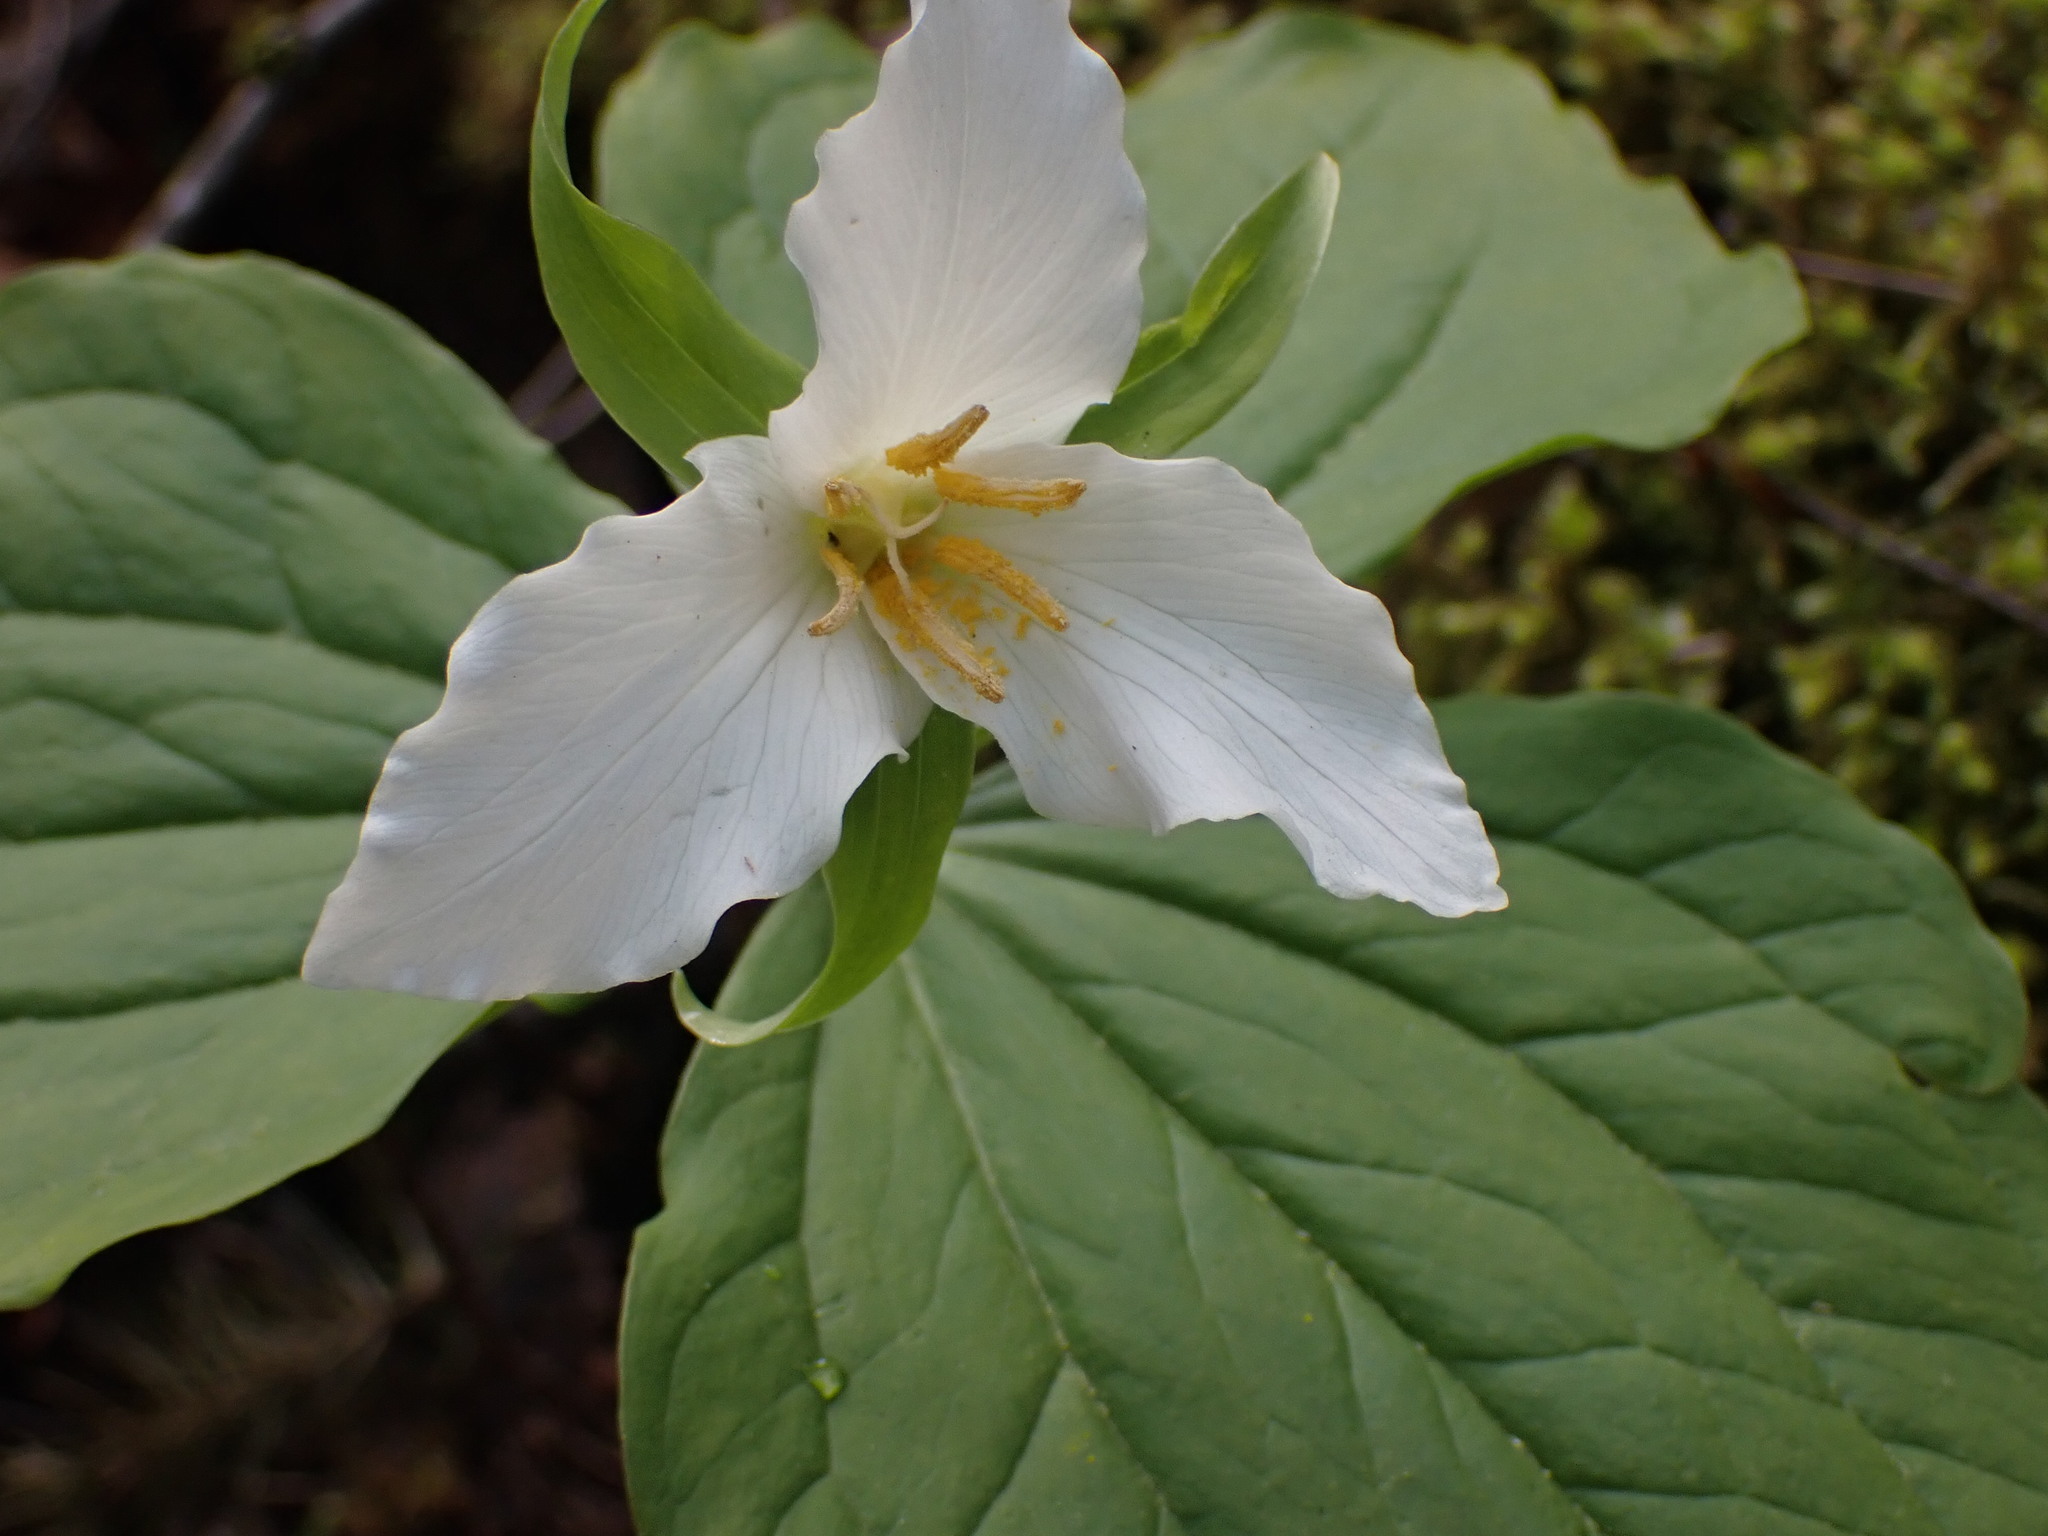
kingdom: Plantae
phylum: Tracheophyta
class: Liliopsida
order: Liliales
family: Melanthiaceae
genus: Trillium
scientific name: Trillium ovatum
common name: Pacific trillium
